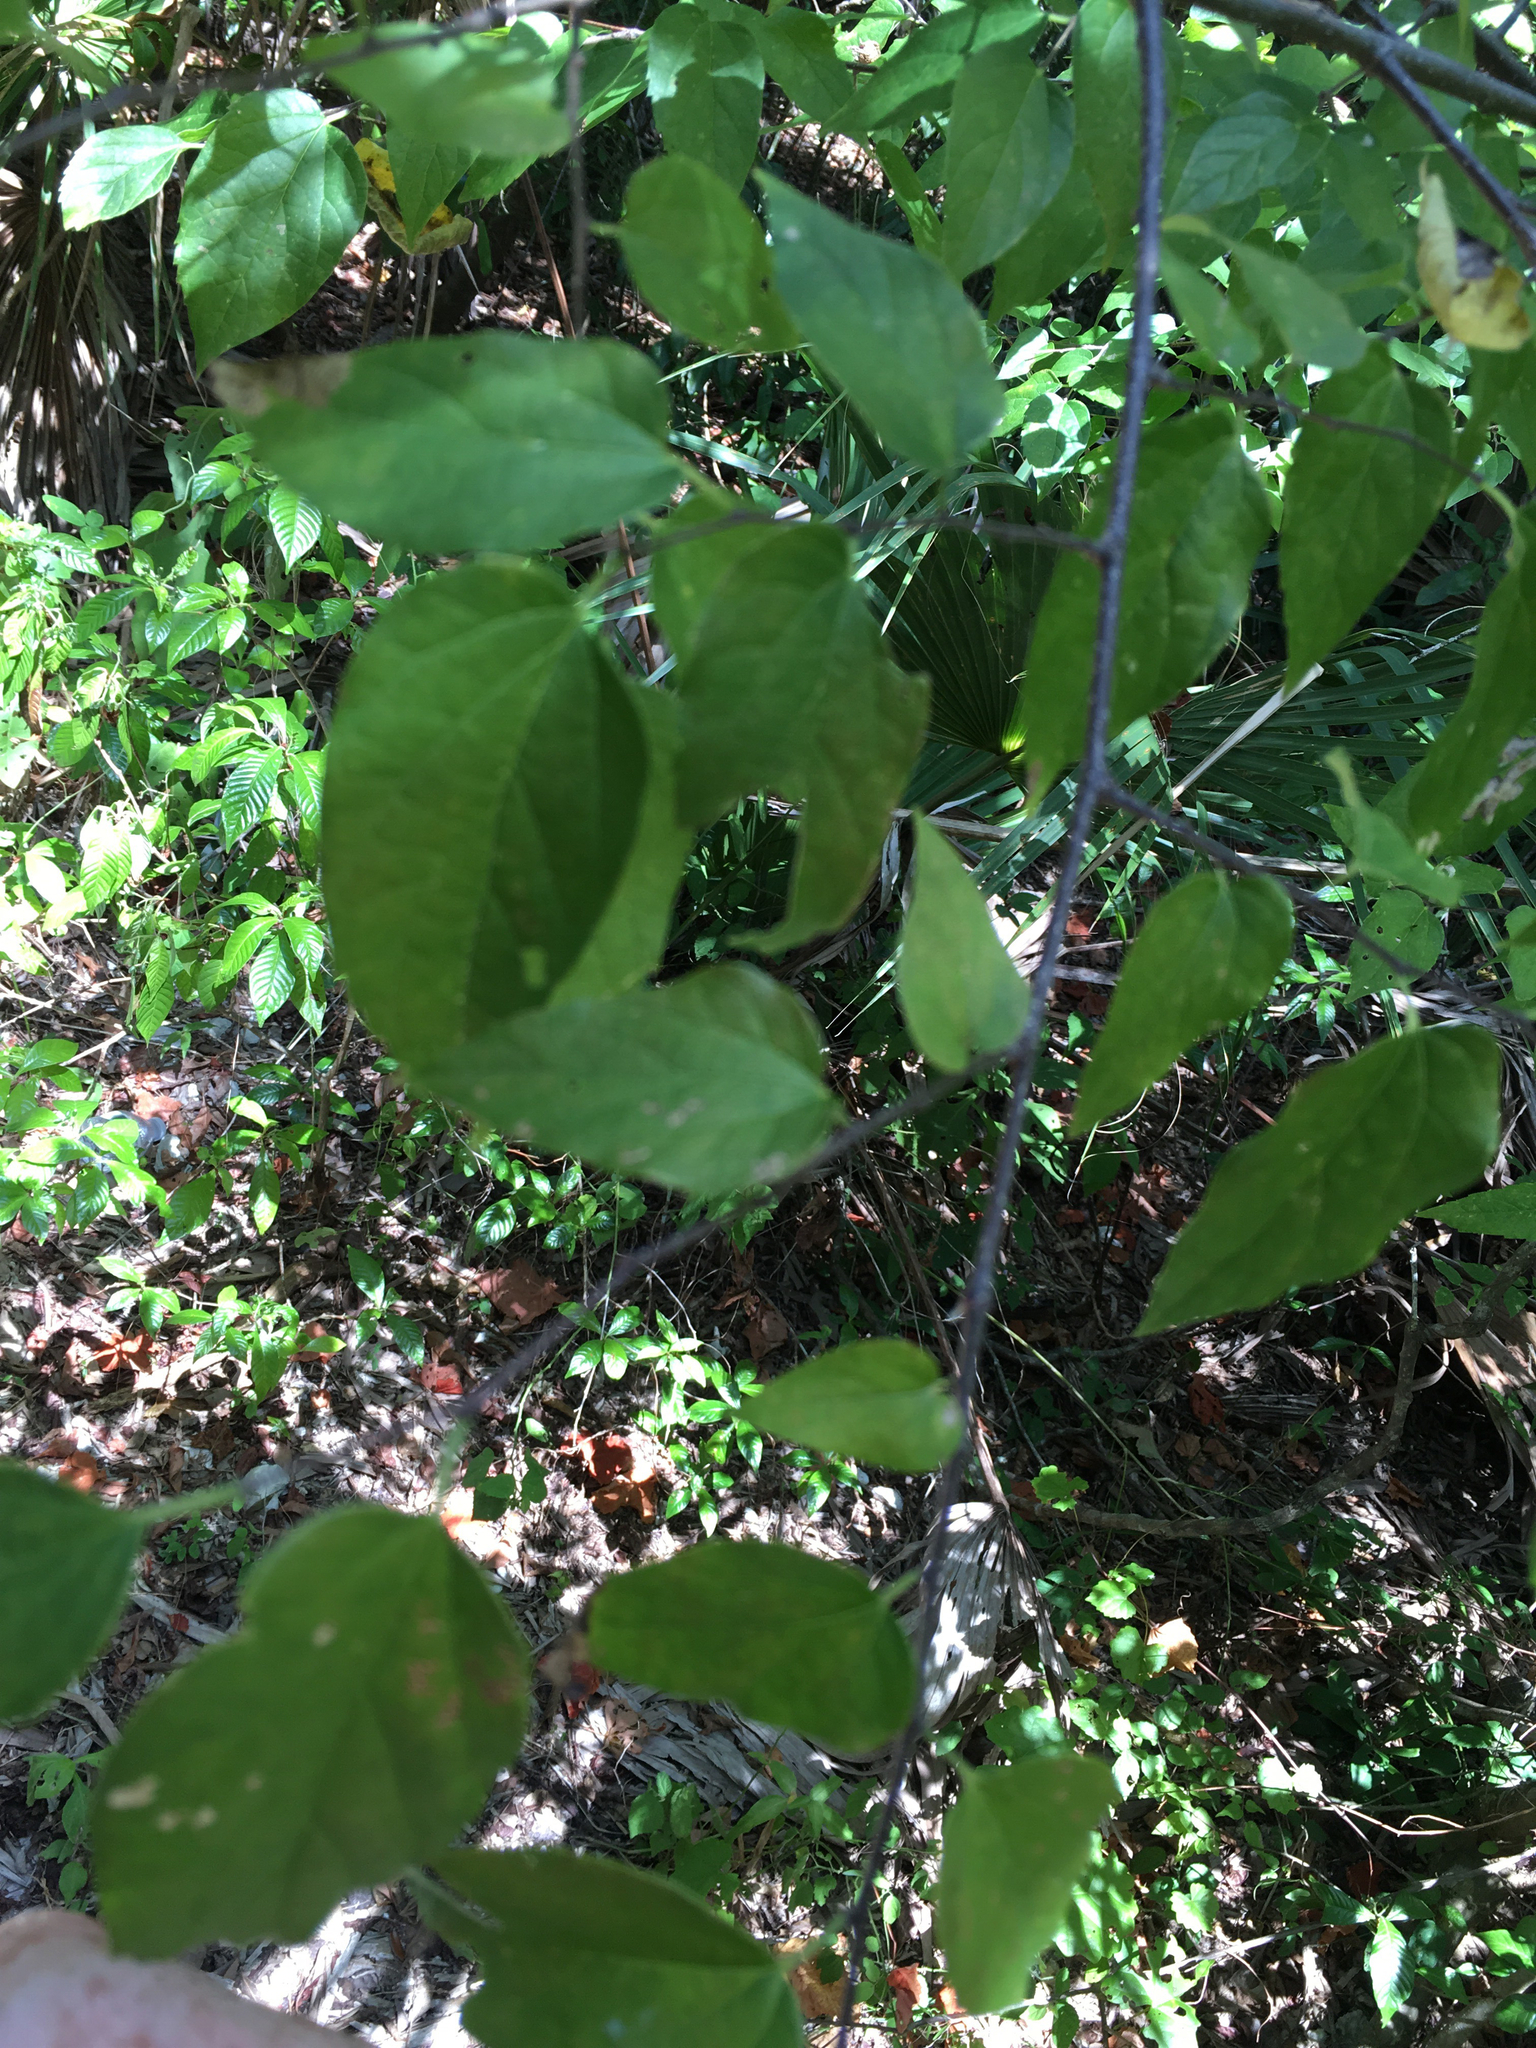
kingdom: Plantae
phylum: Tracheophyta
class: Magnoliopsida
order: Rosales
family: Cannabaceae
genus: Celtis
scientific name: Celtis laevigata
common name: Sugarberry
